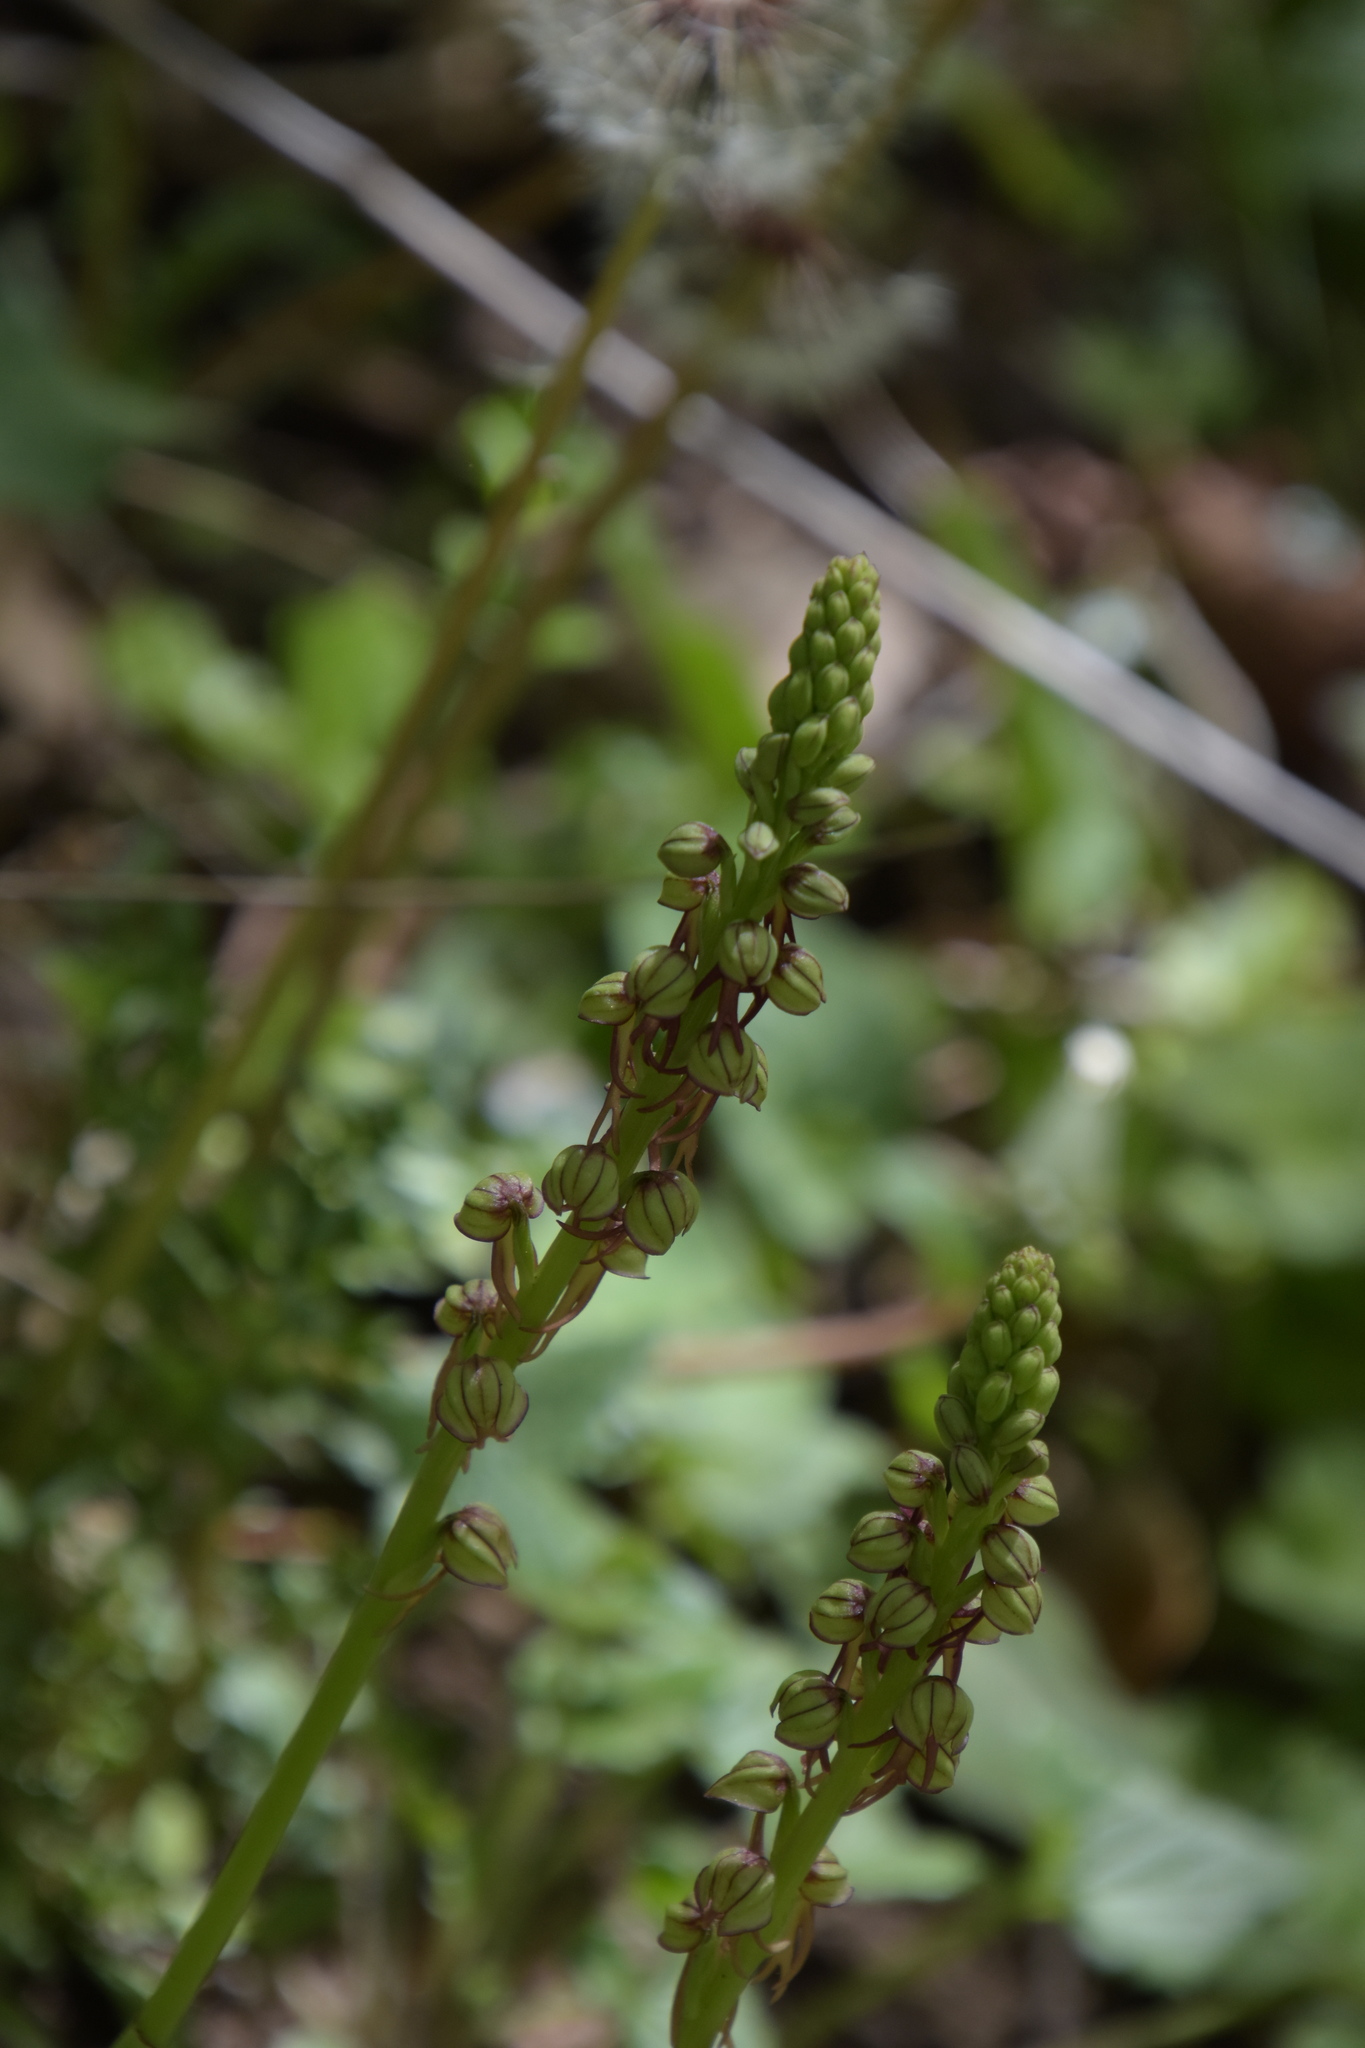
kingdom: Plantae
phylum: Tracheophyta
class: Liliopsida
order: Asparagales
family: Orchidaceae
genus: Orchis
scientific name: Orchis anthropophora
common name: Man orchid
